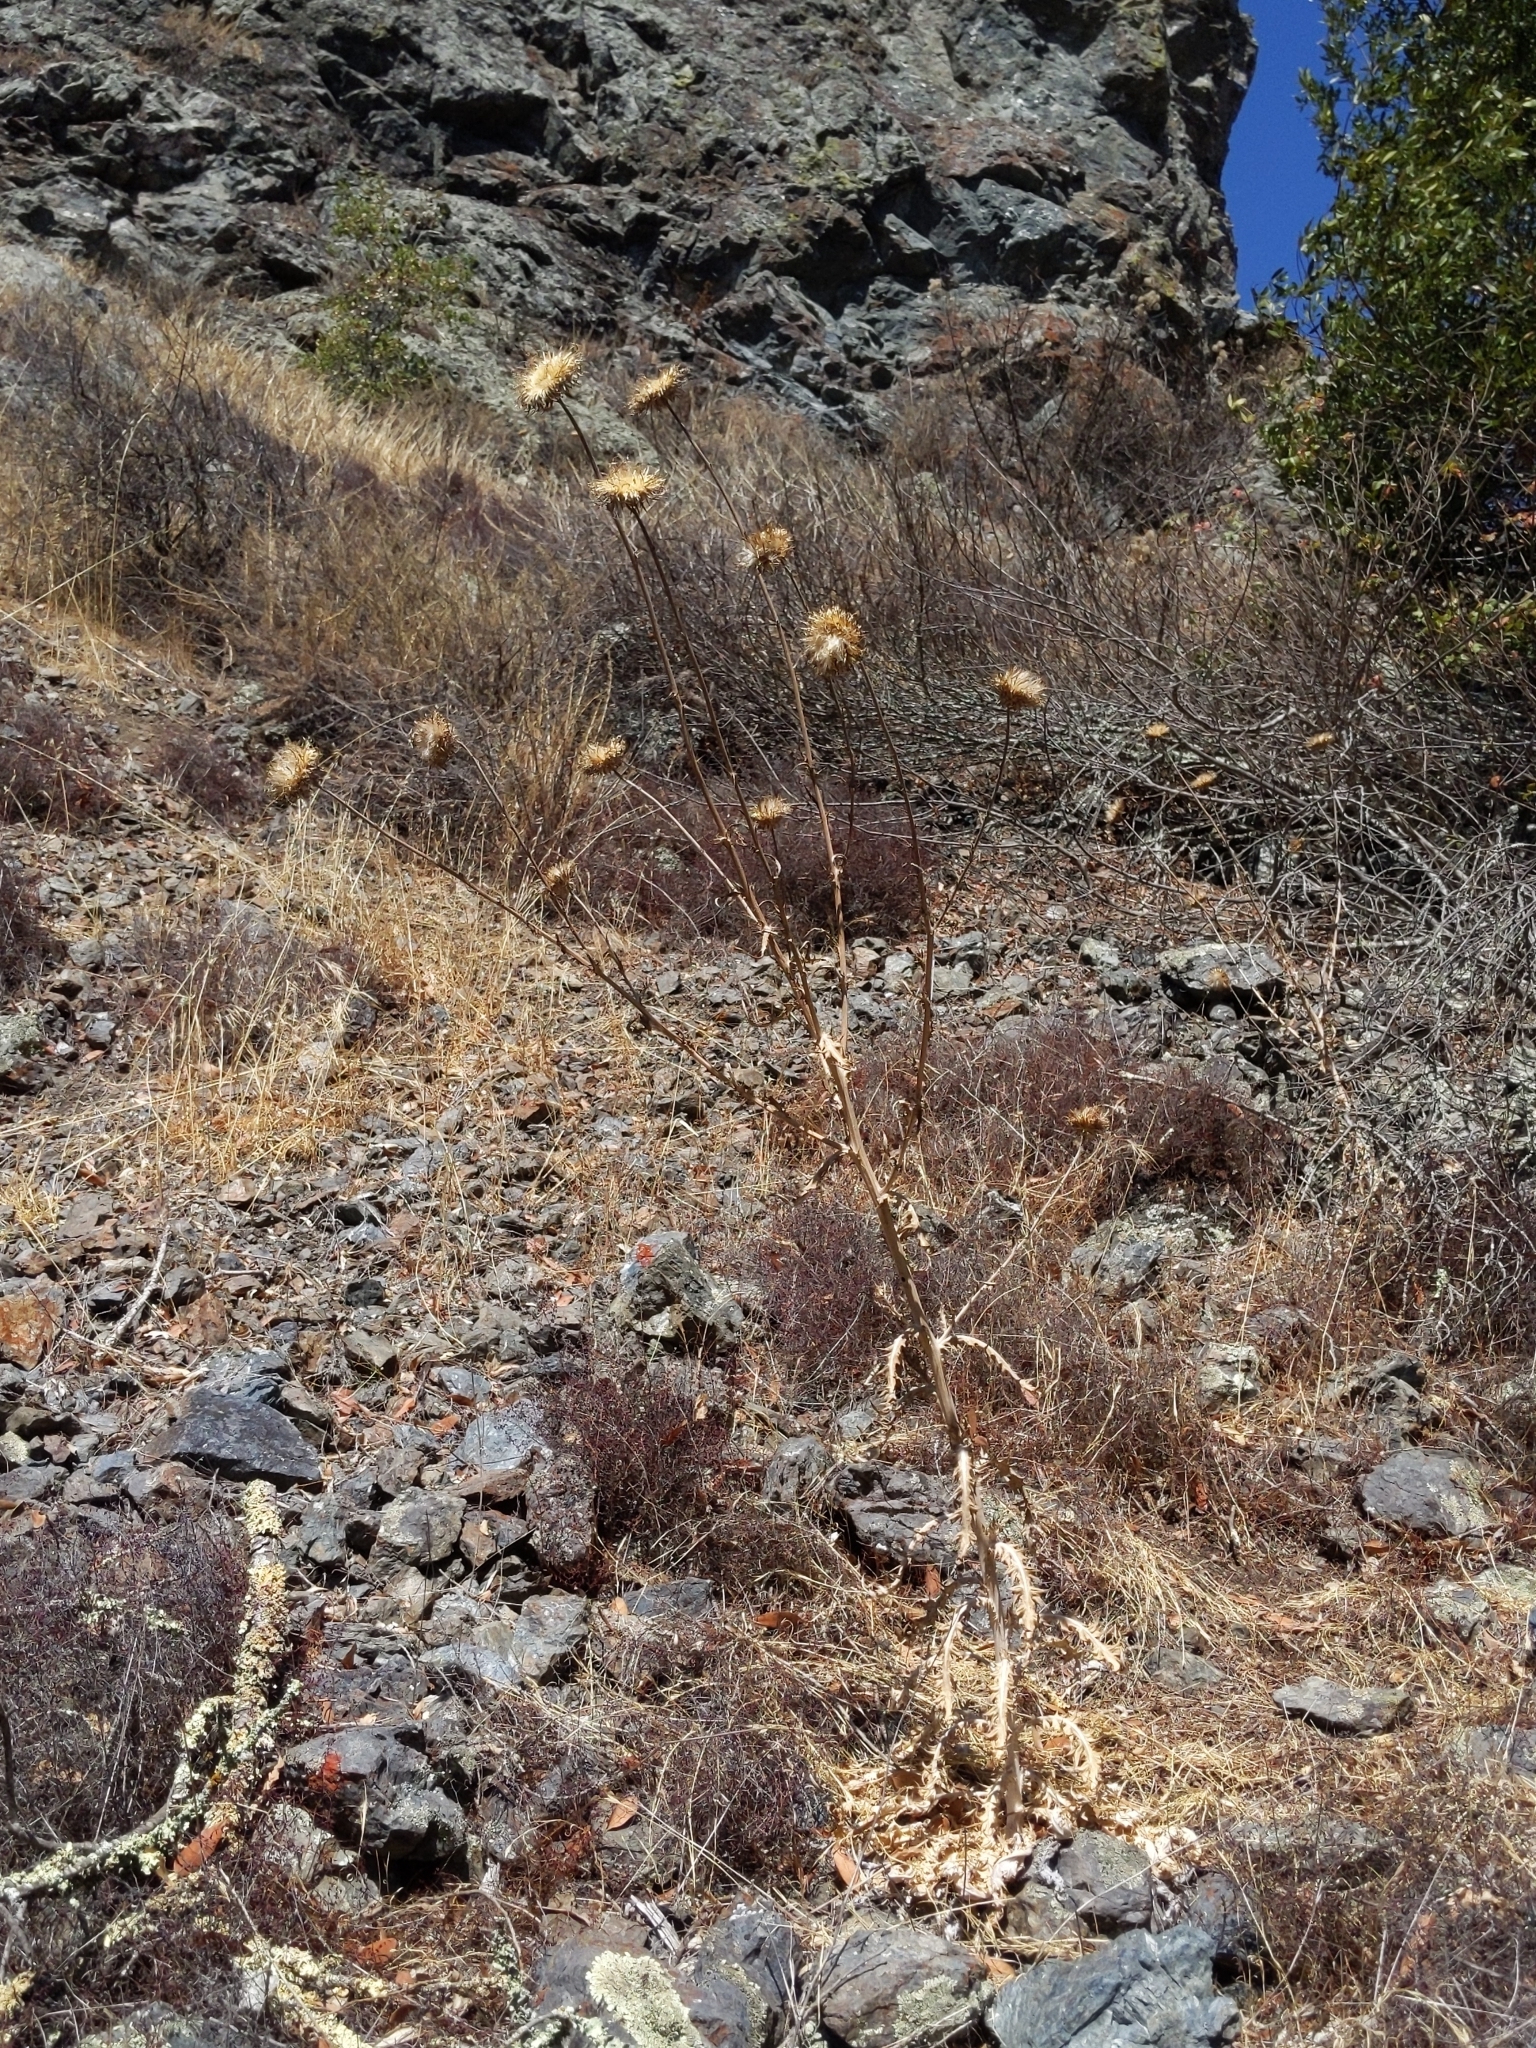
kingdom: Plantae
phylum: Tracheophyta
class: Magnoliopsida
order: Asterales
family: Asteraceae
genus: Cirsium
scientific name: Cirsium occidentale
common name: Western thistle
